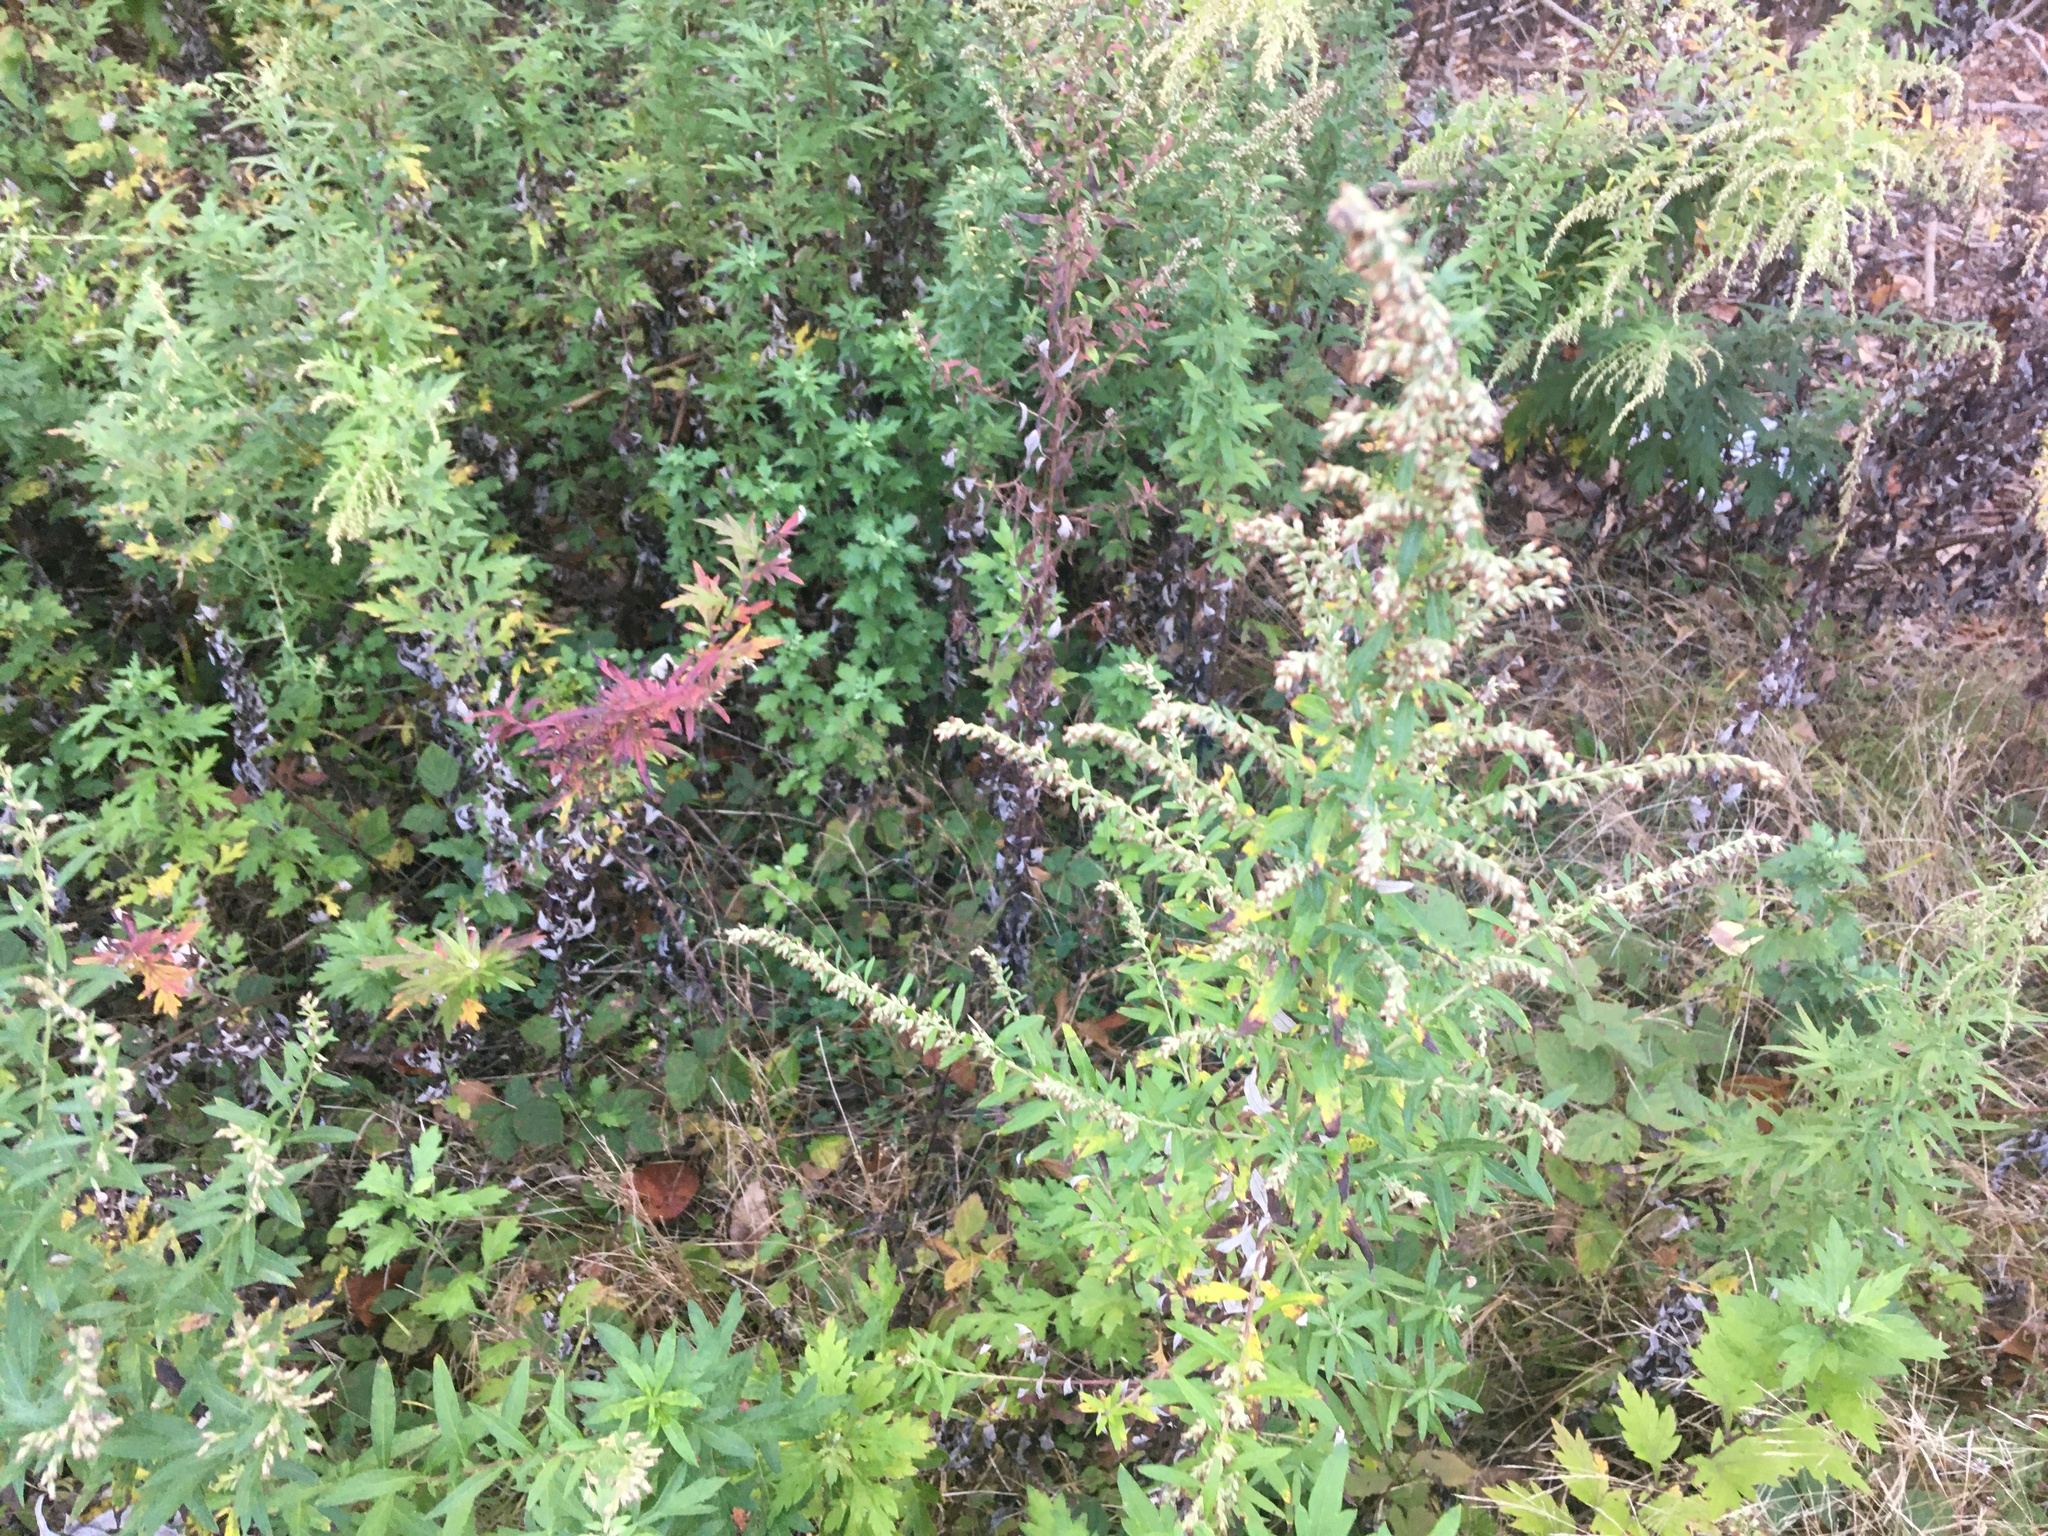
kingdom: Plantae
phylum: Tracheophyta
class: Magnoliopsida
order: Asterales
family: Asteraceae
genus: Artemisia
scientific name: Artemisia vulgaris
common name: Mugwort
